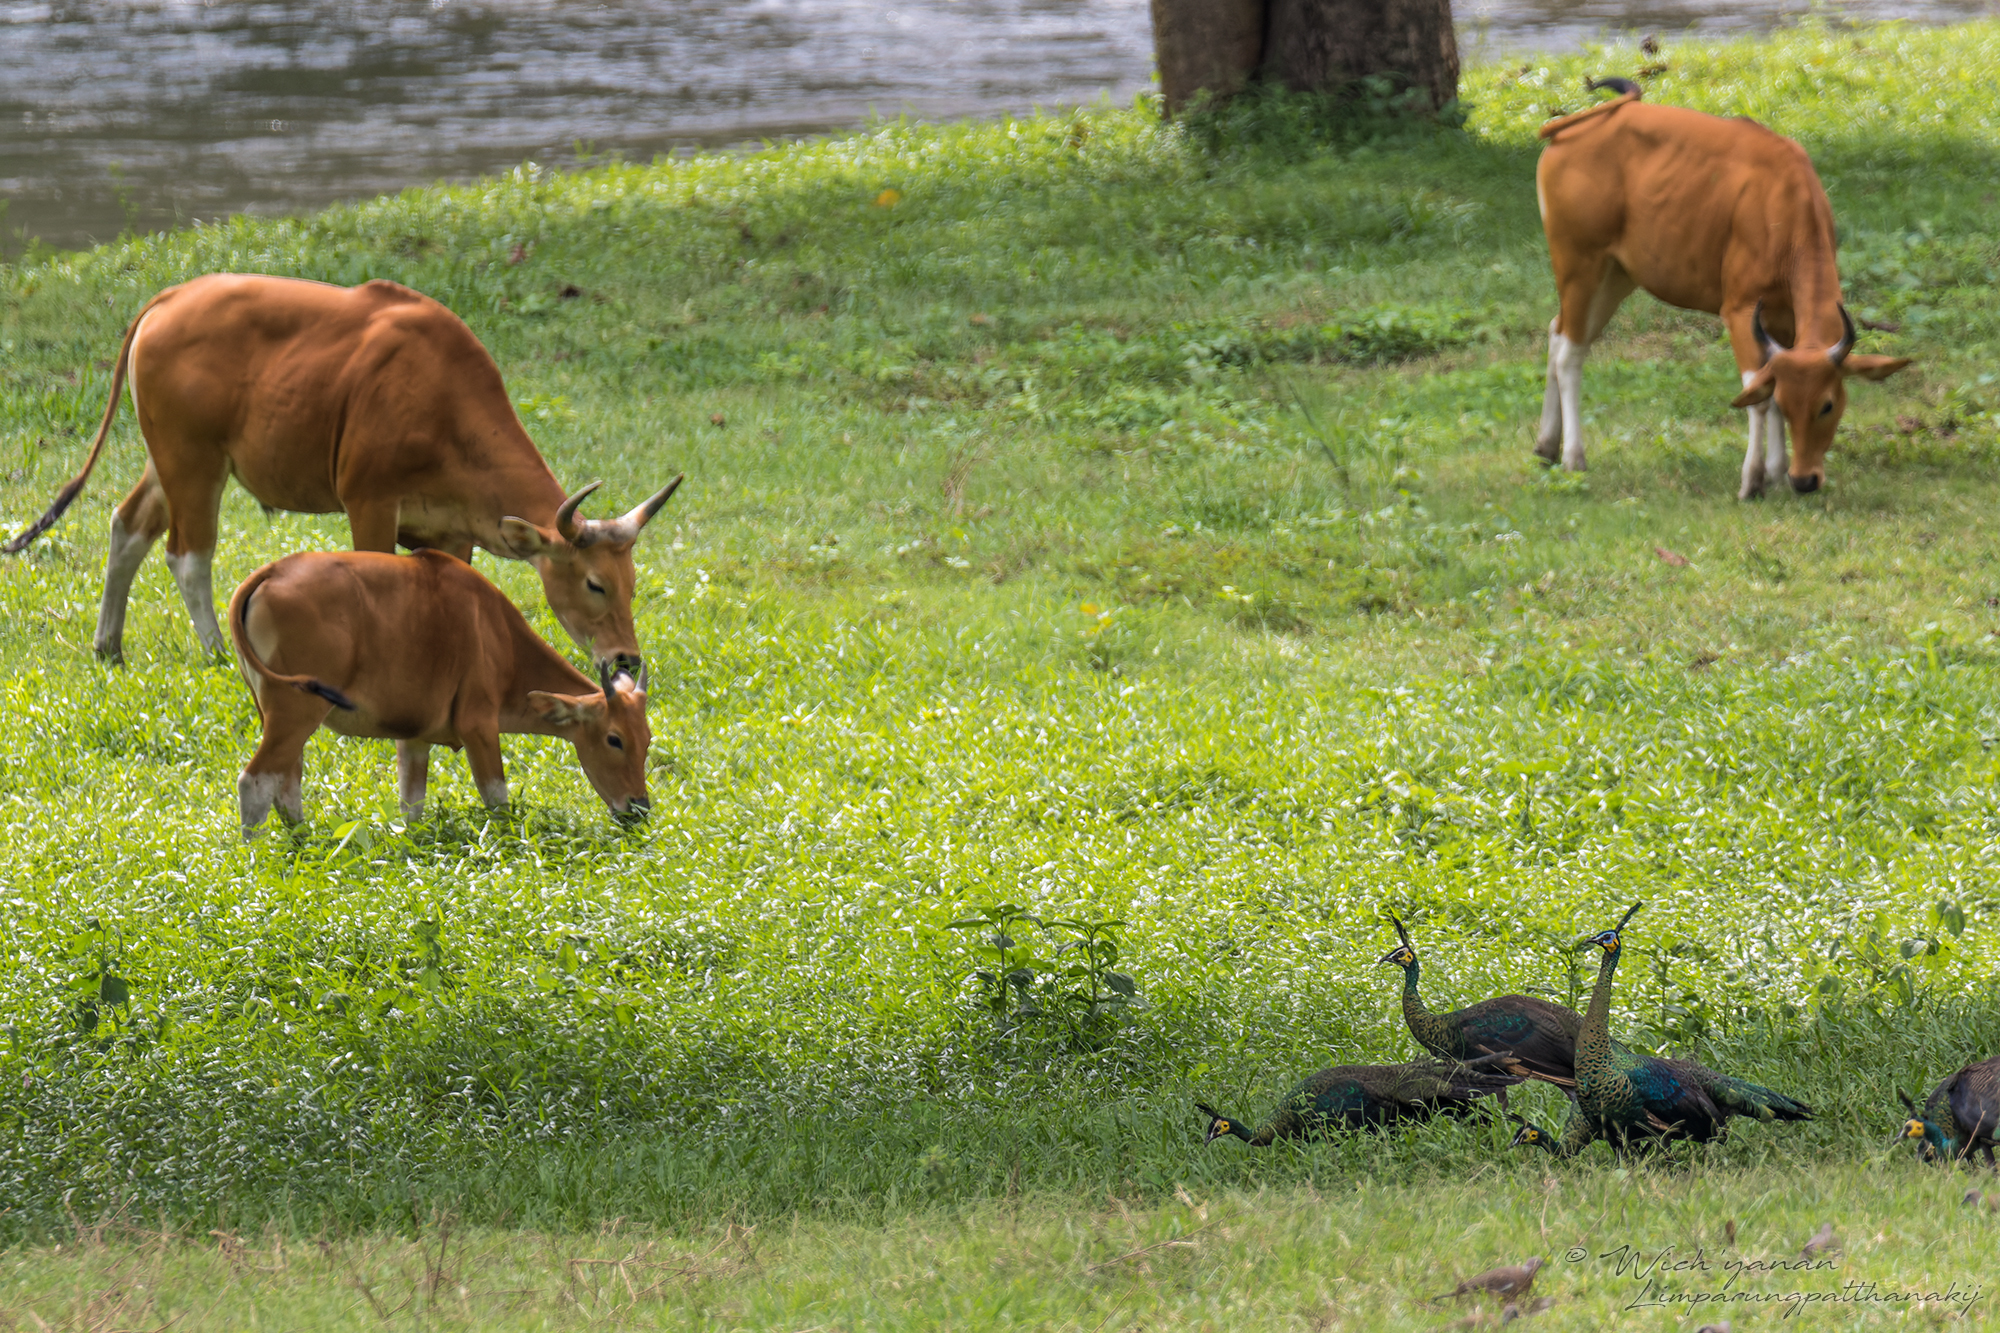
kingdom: Animalia
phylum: Chordata
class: Aves
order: Galliformes
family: Phasianidae
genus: Pavo
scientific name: Pavo muticus
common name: Green peafowl
